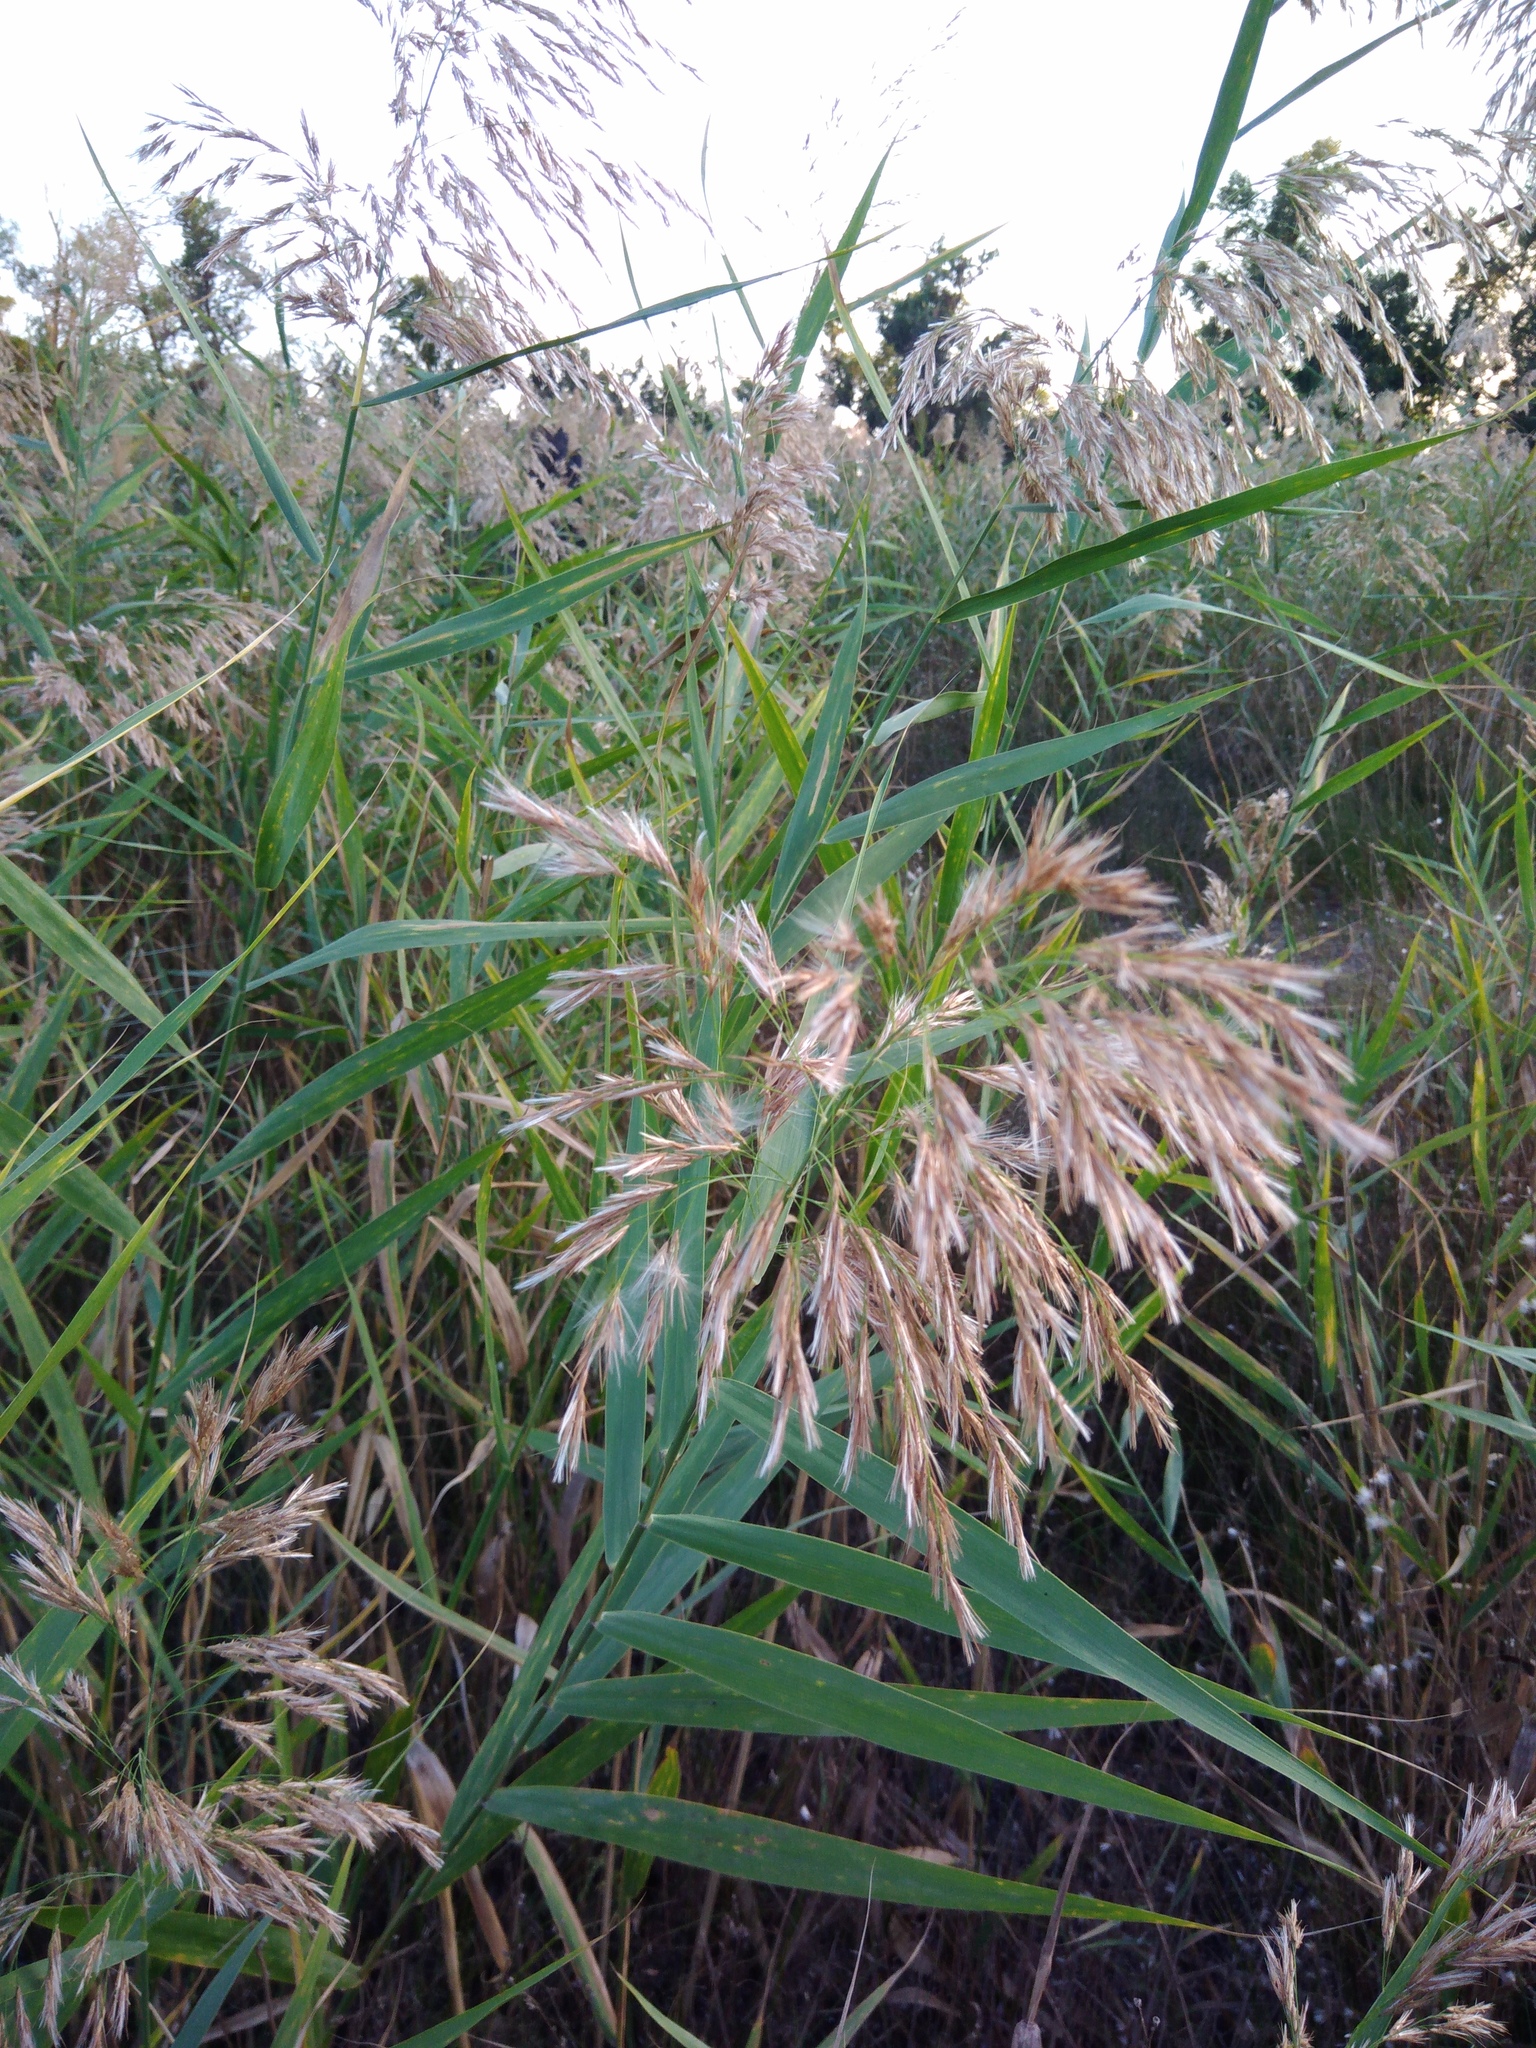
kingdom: Plantae
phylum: Tracheophyta
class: Liliopsida
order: Poales
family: Poaceae
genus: Phragmites
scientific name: Phragmites australis
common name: Common reed
